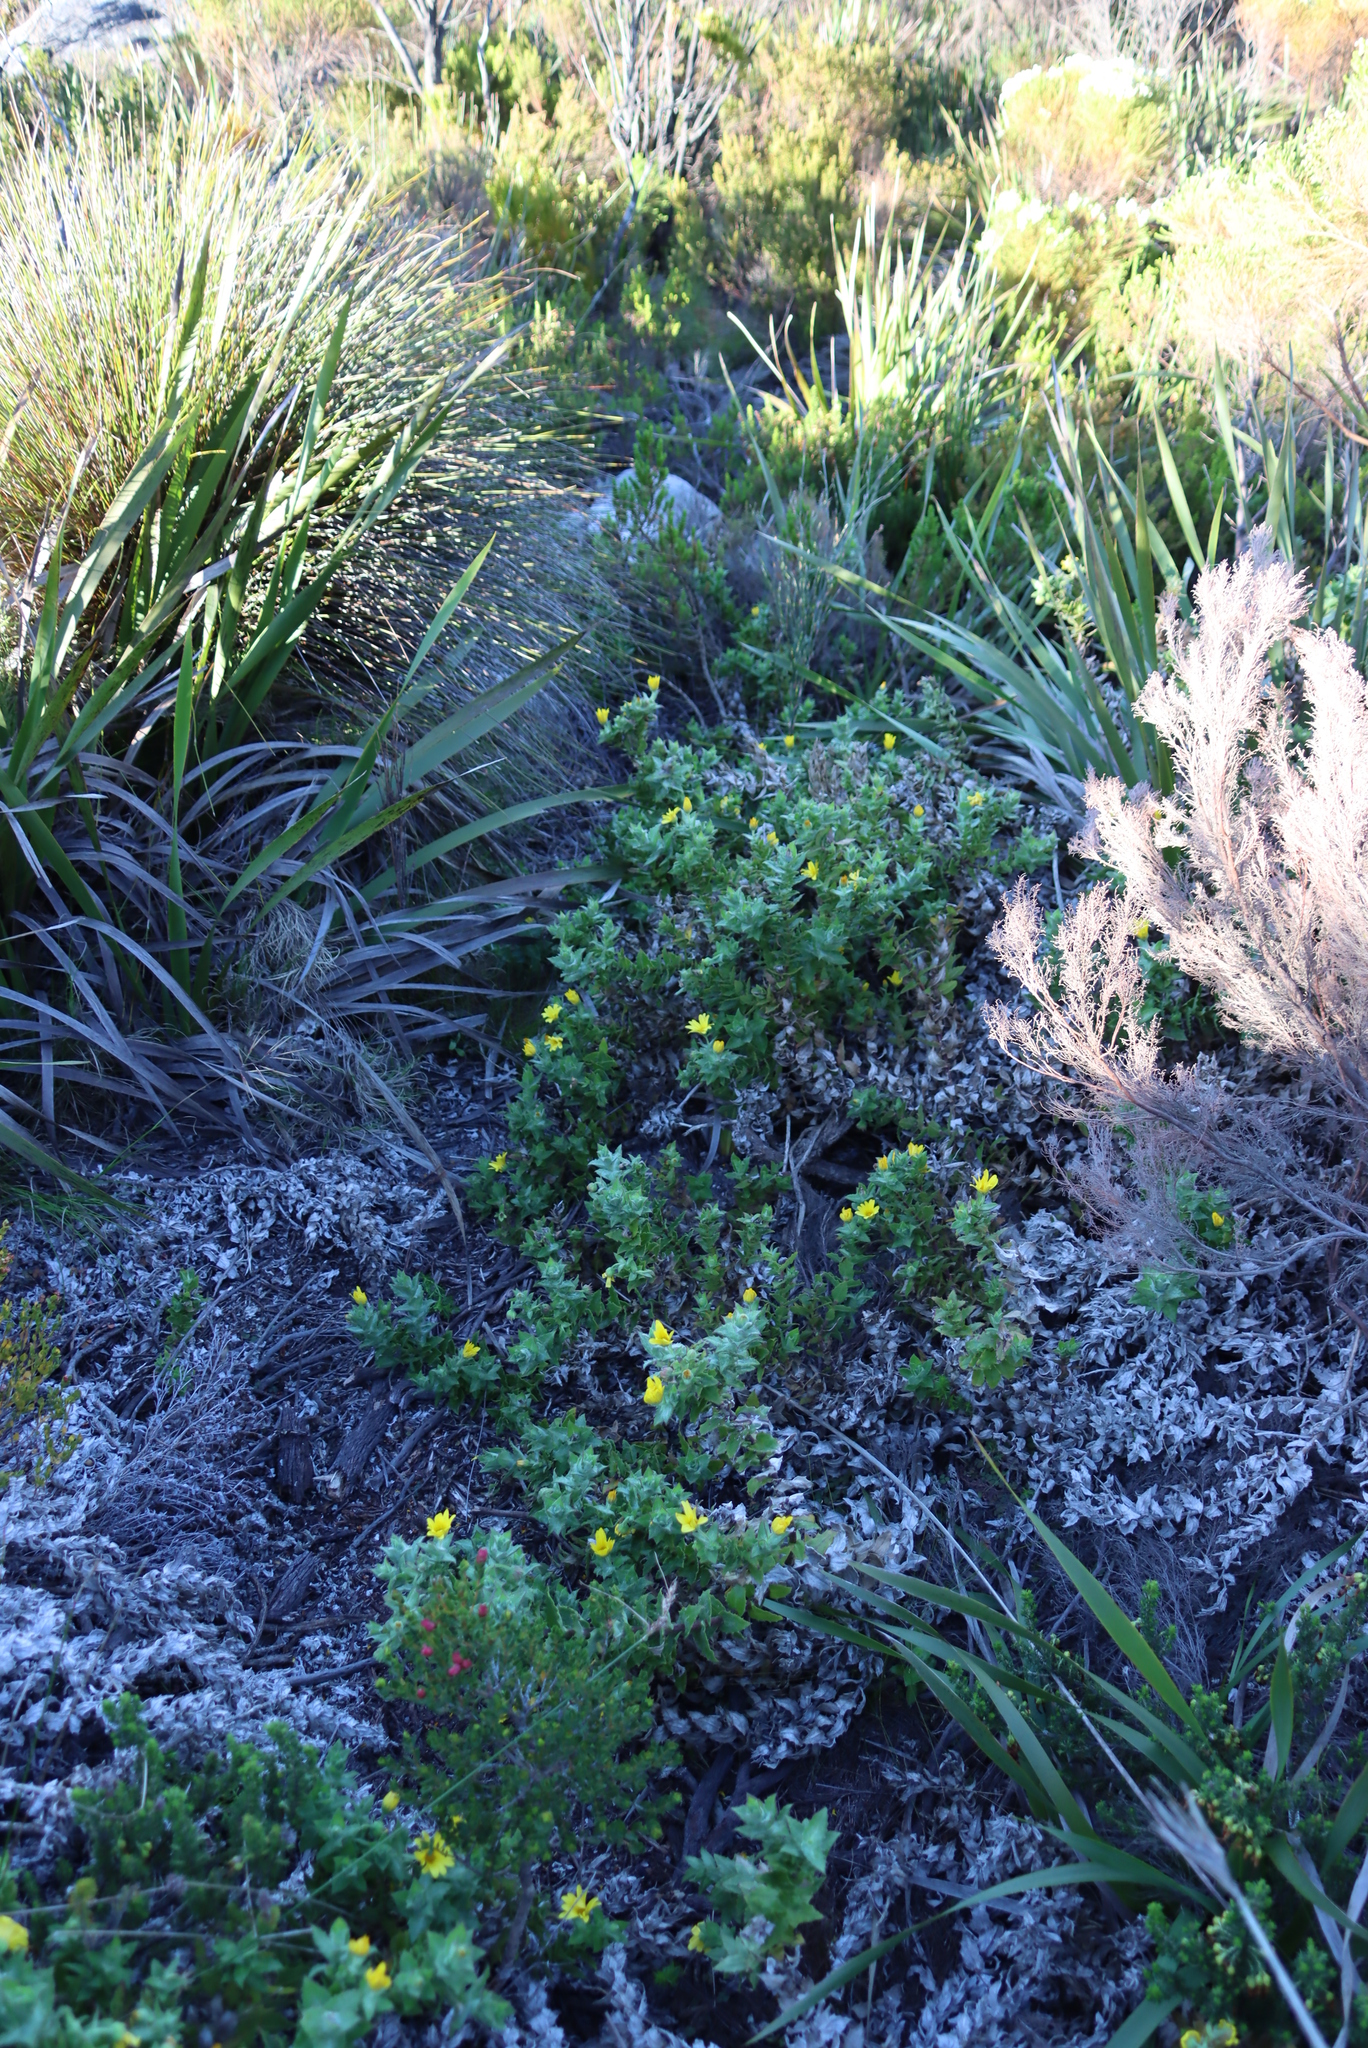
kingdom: Plantae
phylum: Tracheophyta
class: Magnoliopsida
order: Asterales
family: Asteraceae
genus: Osteospermum
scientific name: Osteospermum ilicifolium
